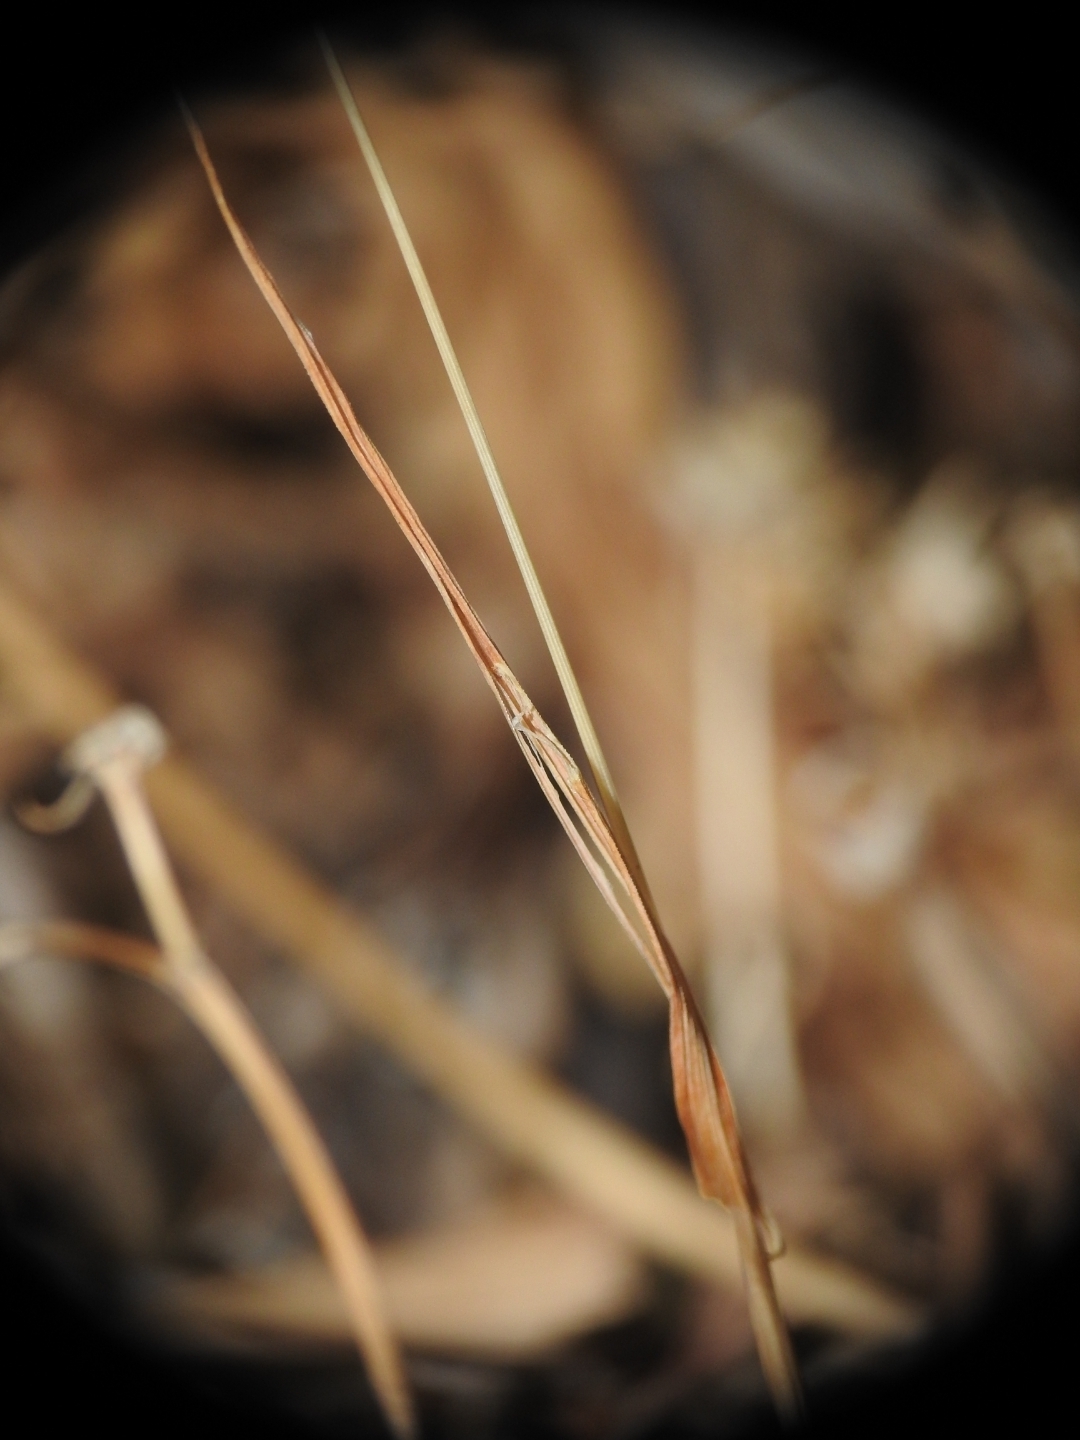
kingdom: Plantae
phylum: Tracheophyta
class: Liliopsida
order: Poales
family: Poaceae
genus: Briza
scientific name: Briza maxima
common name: Big quakinggrass
